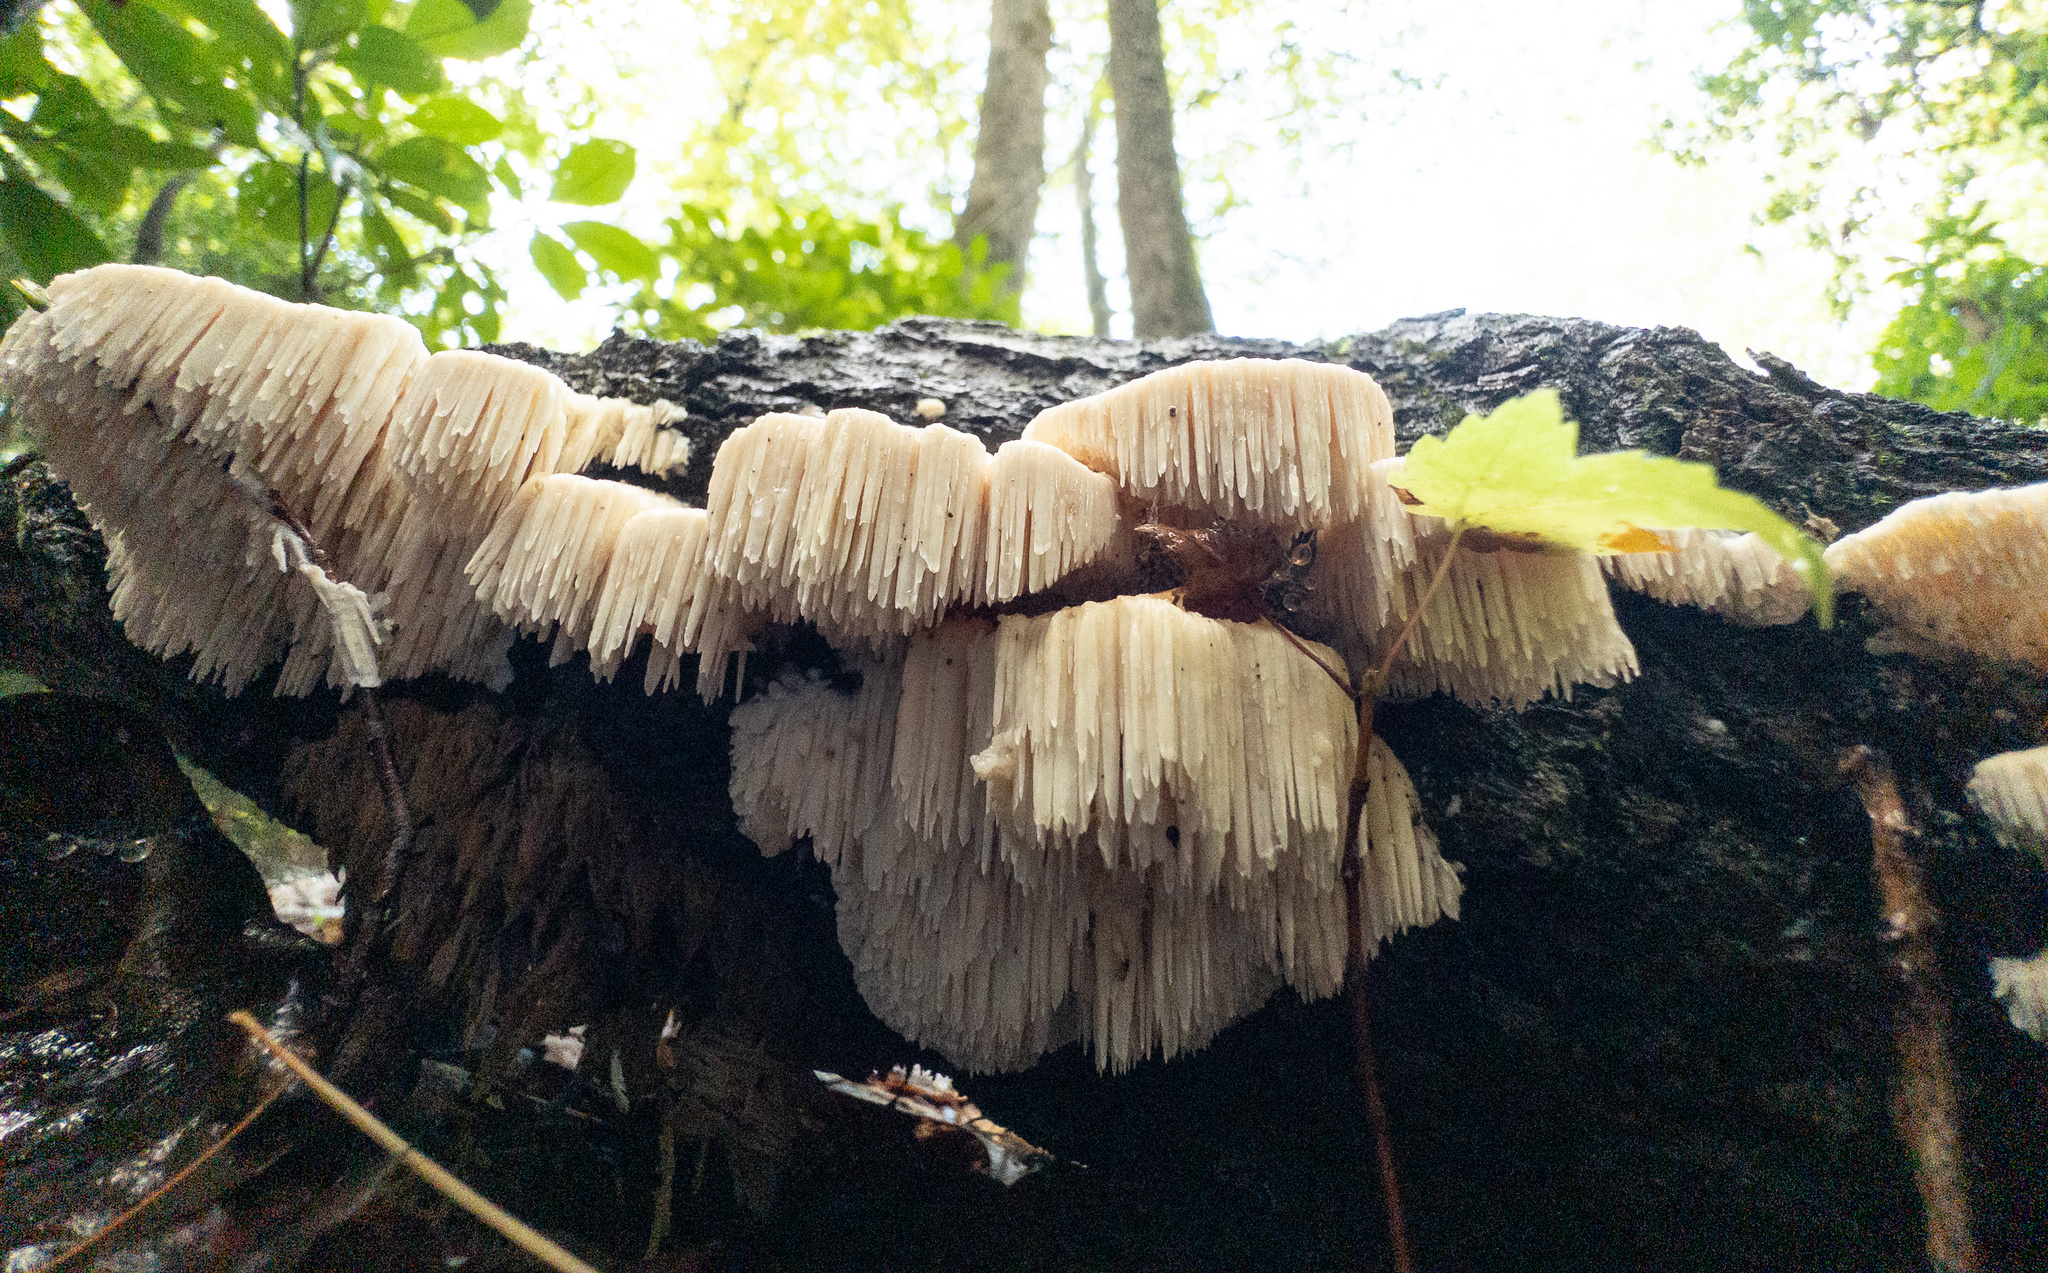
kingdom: Fungi
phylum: Basidiomycota
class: Agaricomycetes
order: Polyporales
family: Meruliaceae
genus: Irpiciporus
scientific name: Irpiciporus pachyodon
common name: Marshmallow polypore
